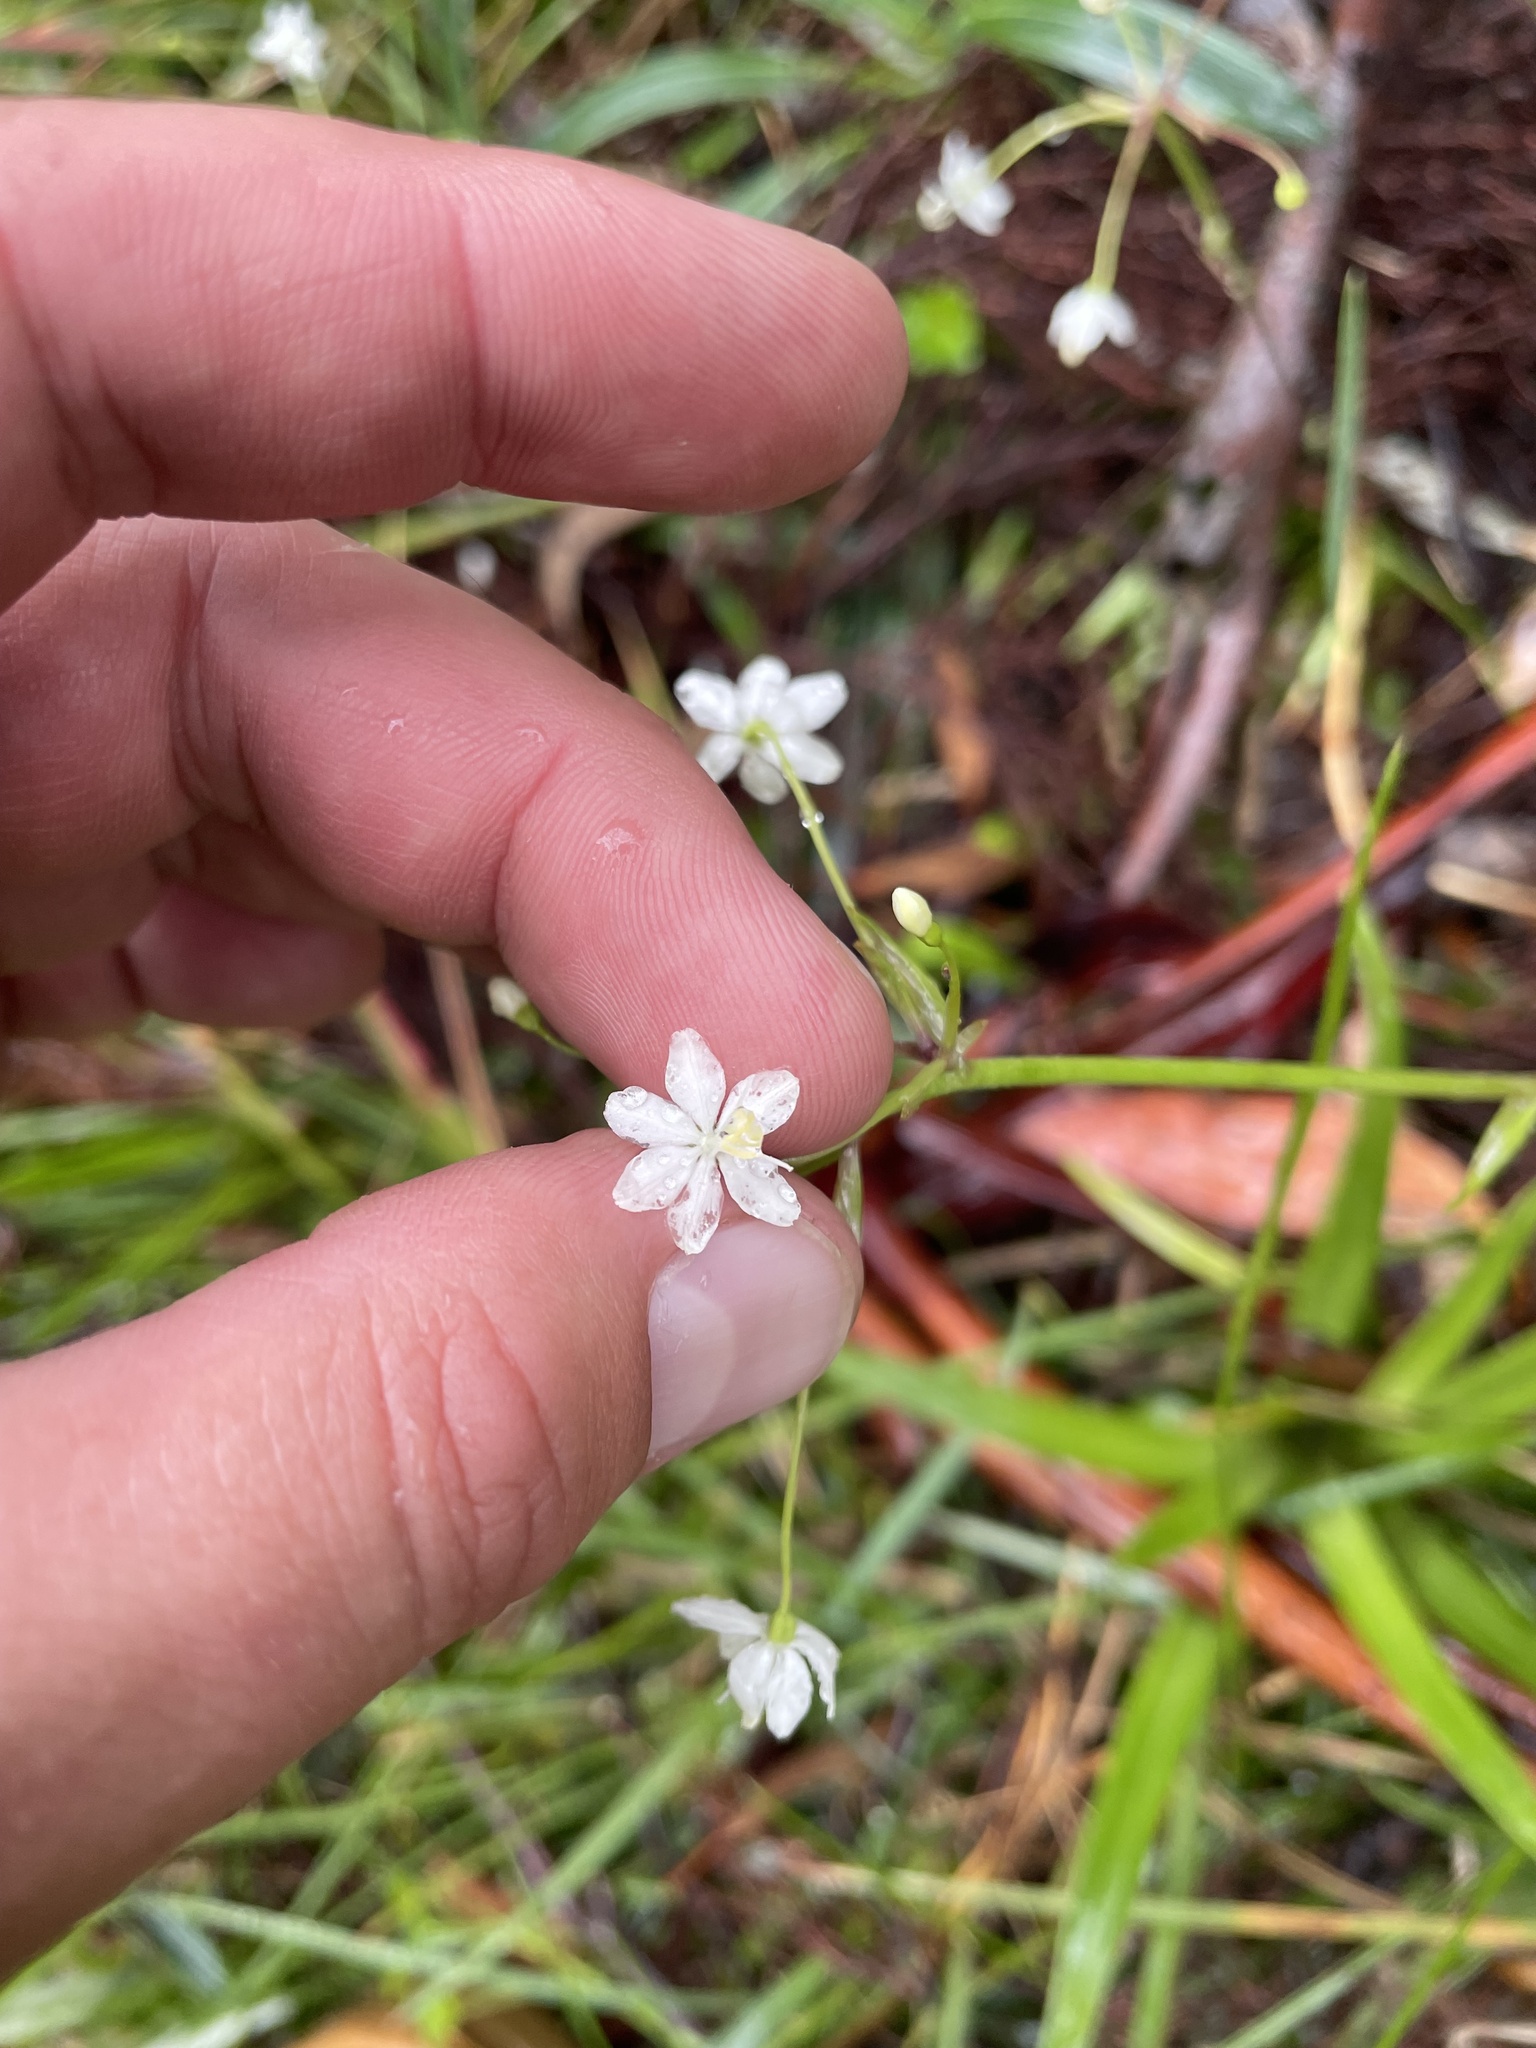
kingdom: Plantae
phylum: Tracheophyta
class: Liliopsida
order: Asparagales
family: Iridaceae
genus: Libertia
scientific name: Libertia pulchella
